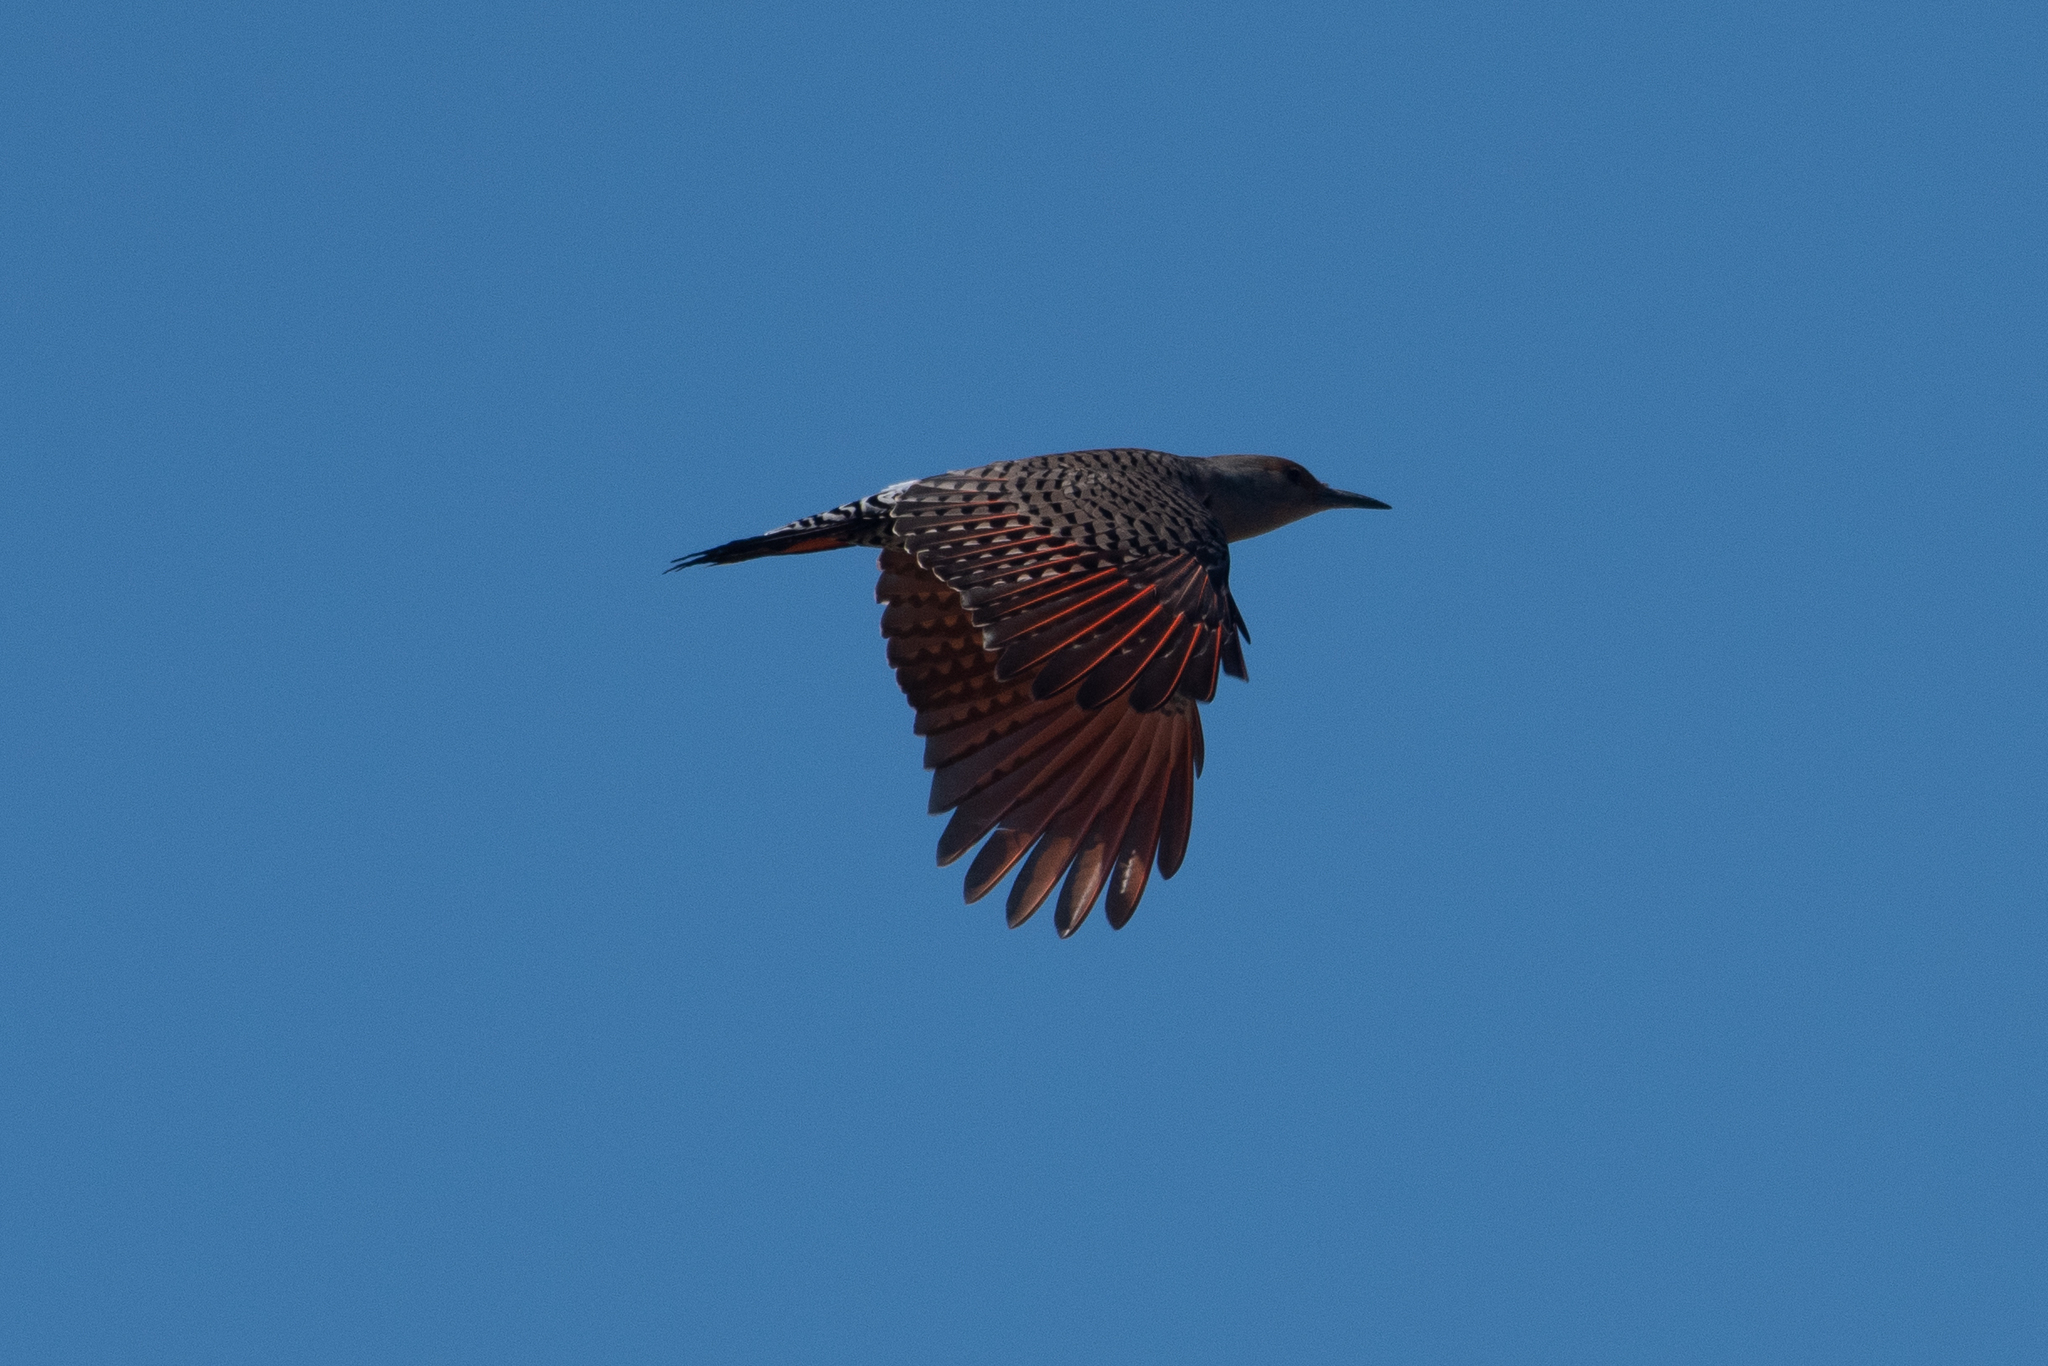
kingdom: Animalia
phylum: Chordata
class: Aves
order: Piciformes
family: Picidae
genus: Colaptes
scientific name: Colaptes auratus
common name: Northern flicker
